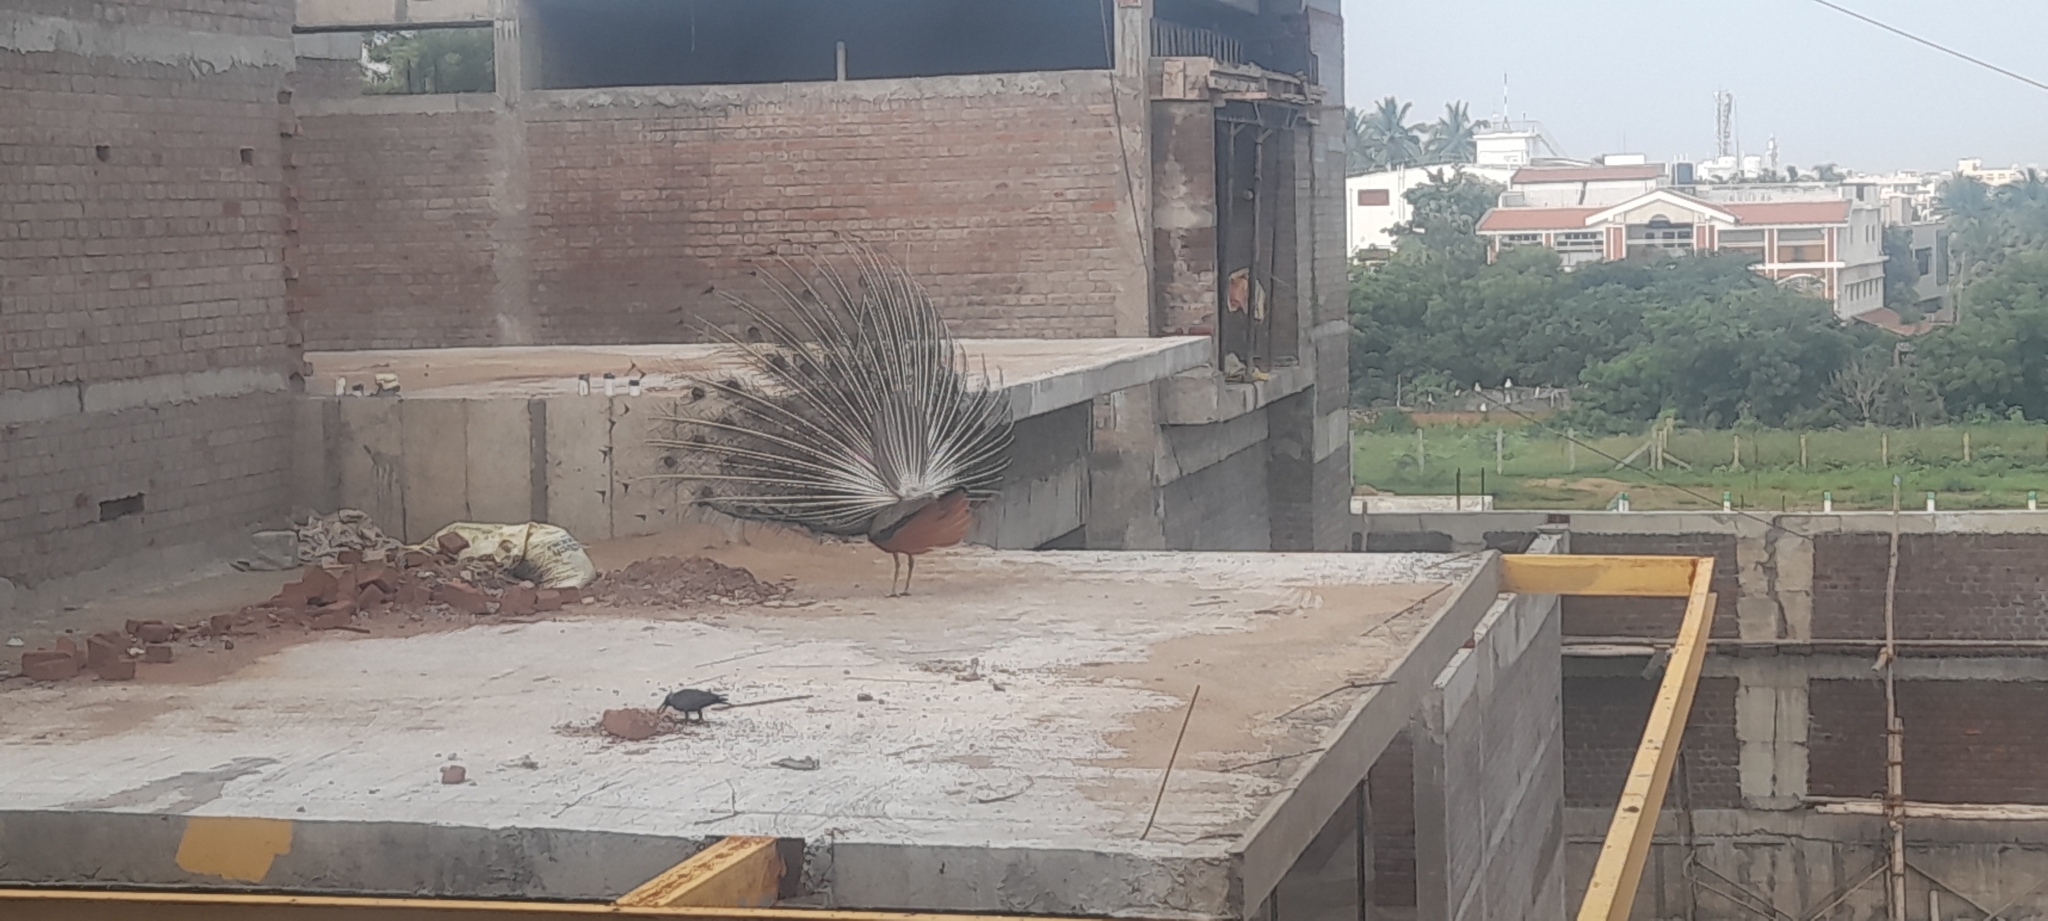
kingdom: Animalia
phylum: Chordata
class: Aves
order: Galliformes
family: Phasianidae
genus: Pavo
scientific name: Pavo cristatus
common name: Indian peafowl
